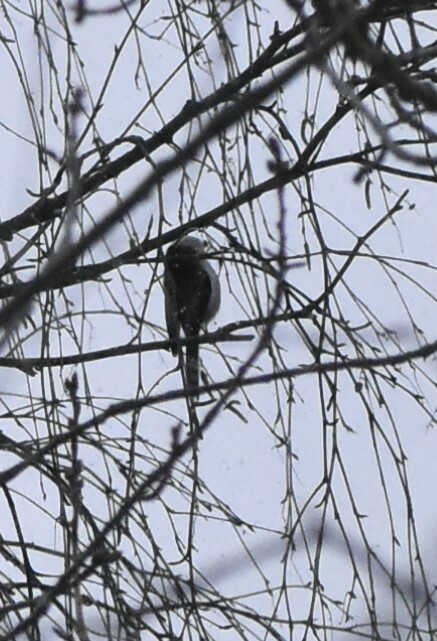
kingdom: Animalia
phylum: Chordata
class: Aves
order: Passeriformes
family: Aegithalidae
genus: Aegithalos
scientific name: Aegithalos caudatus
